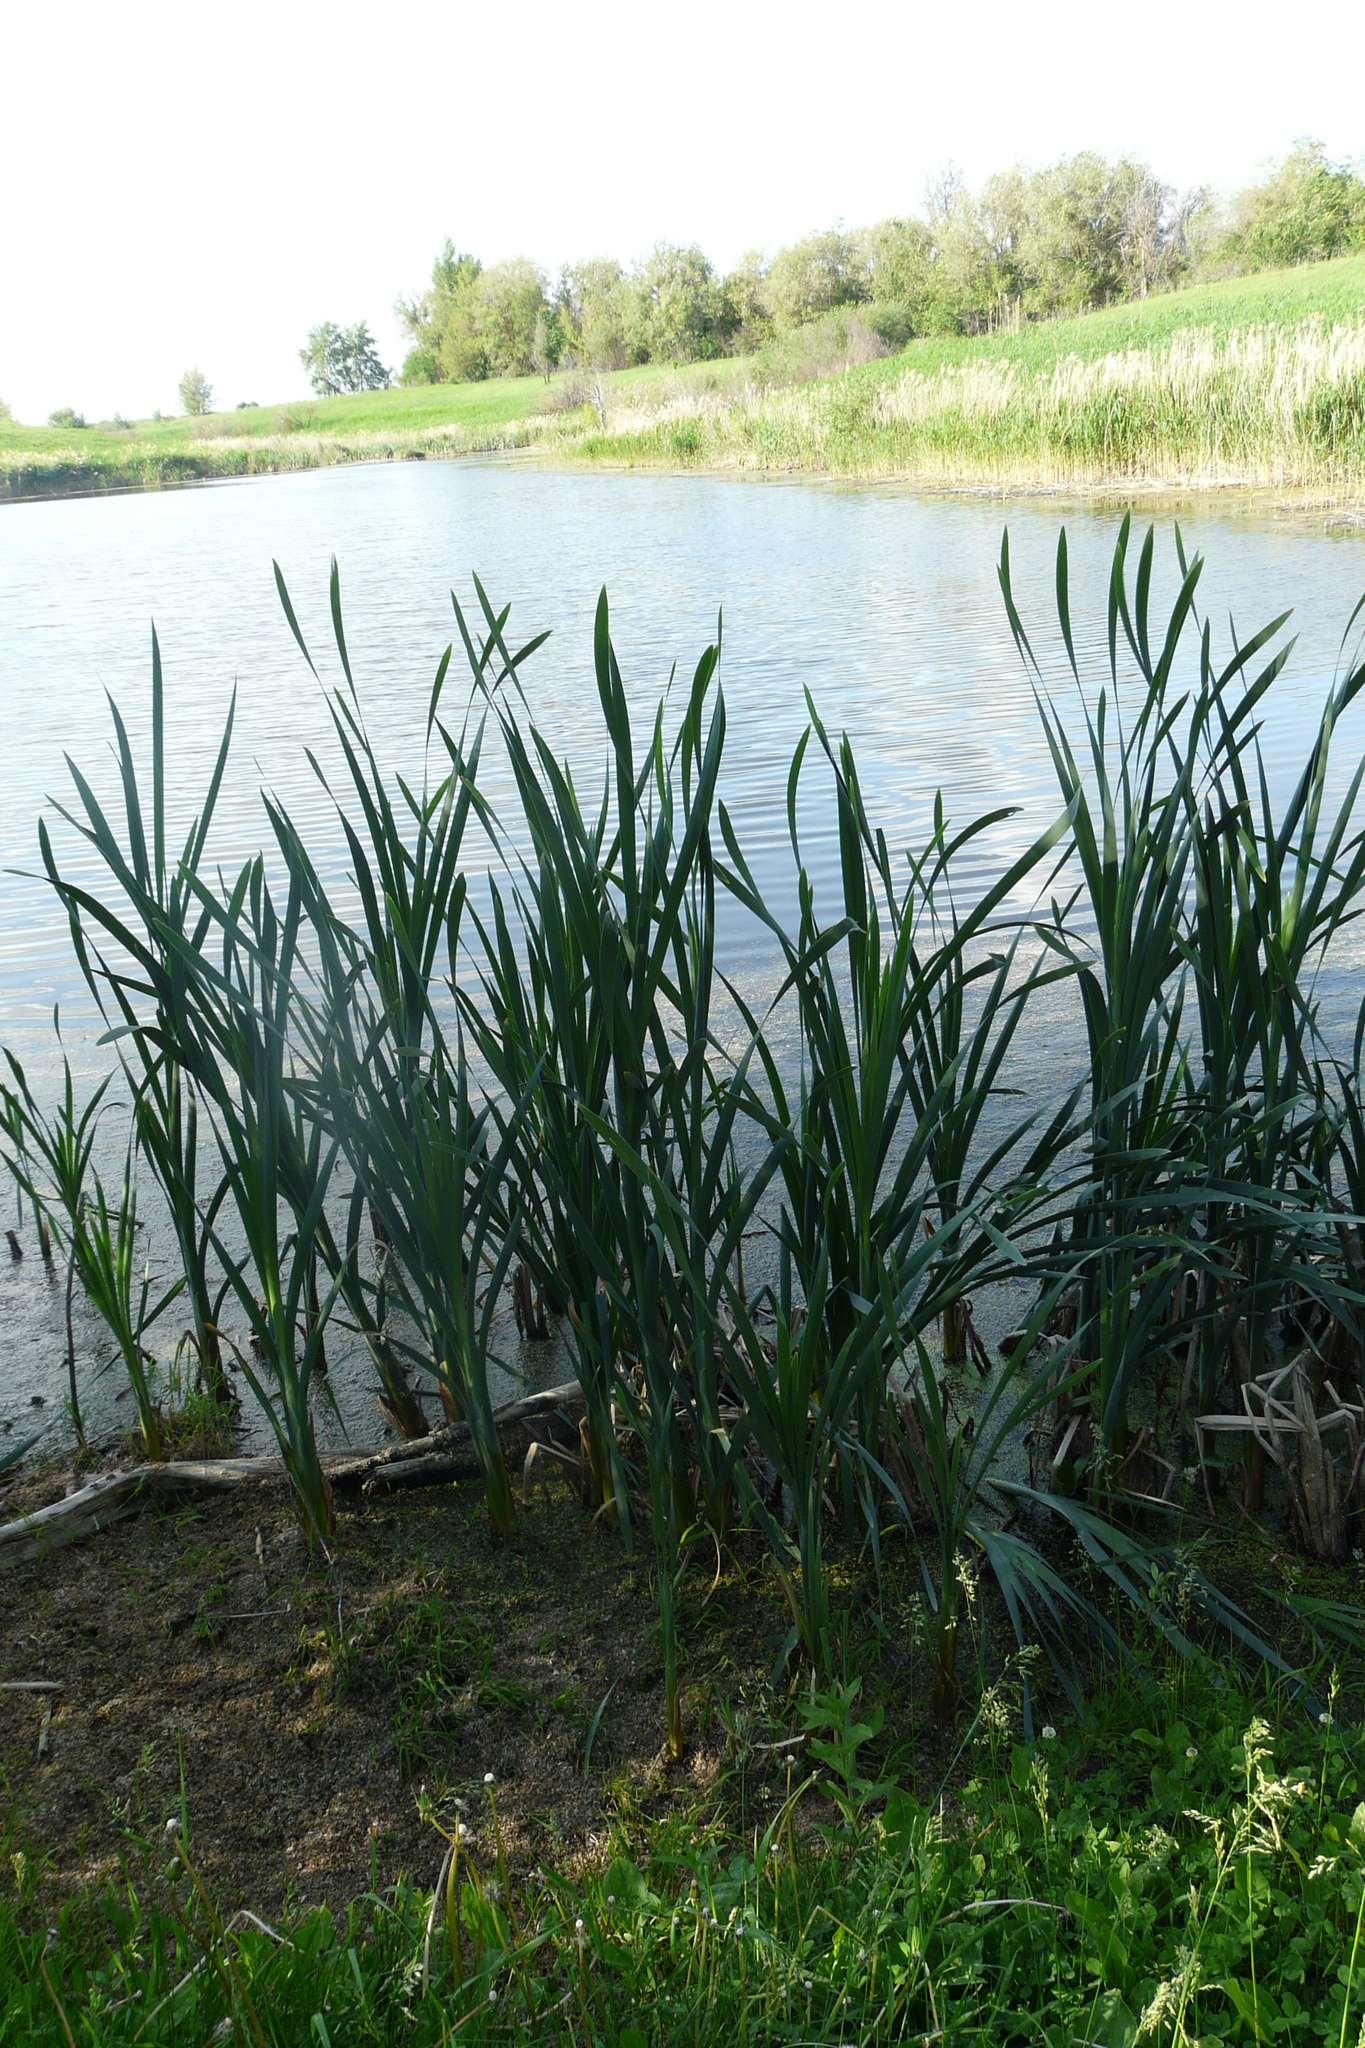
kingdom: Plantae
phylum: Tracheophyta
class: Liliopsida
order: Poales
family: Typhaceae
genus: Typha
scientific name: Typha latifolia
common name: Broadleaf cattail
